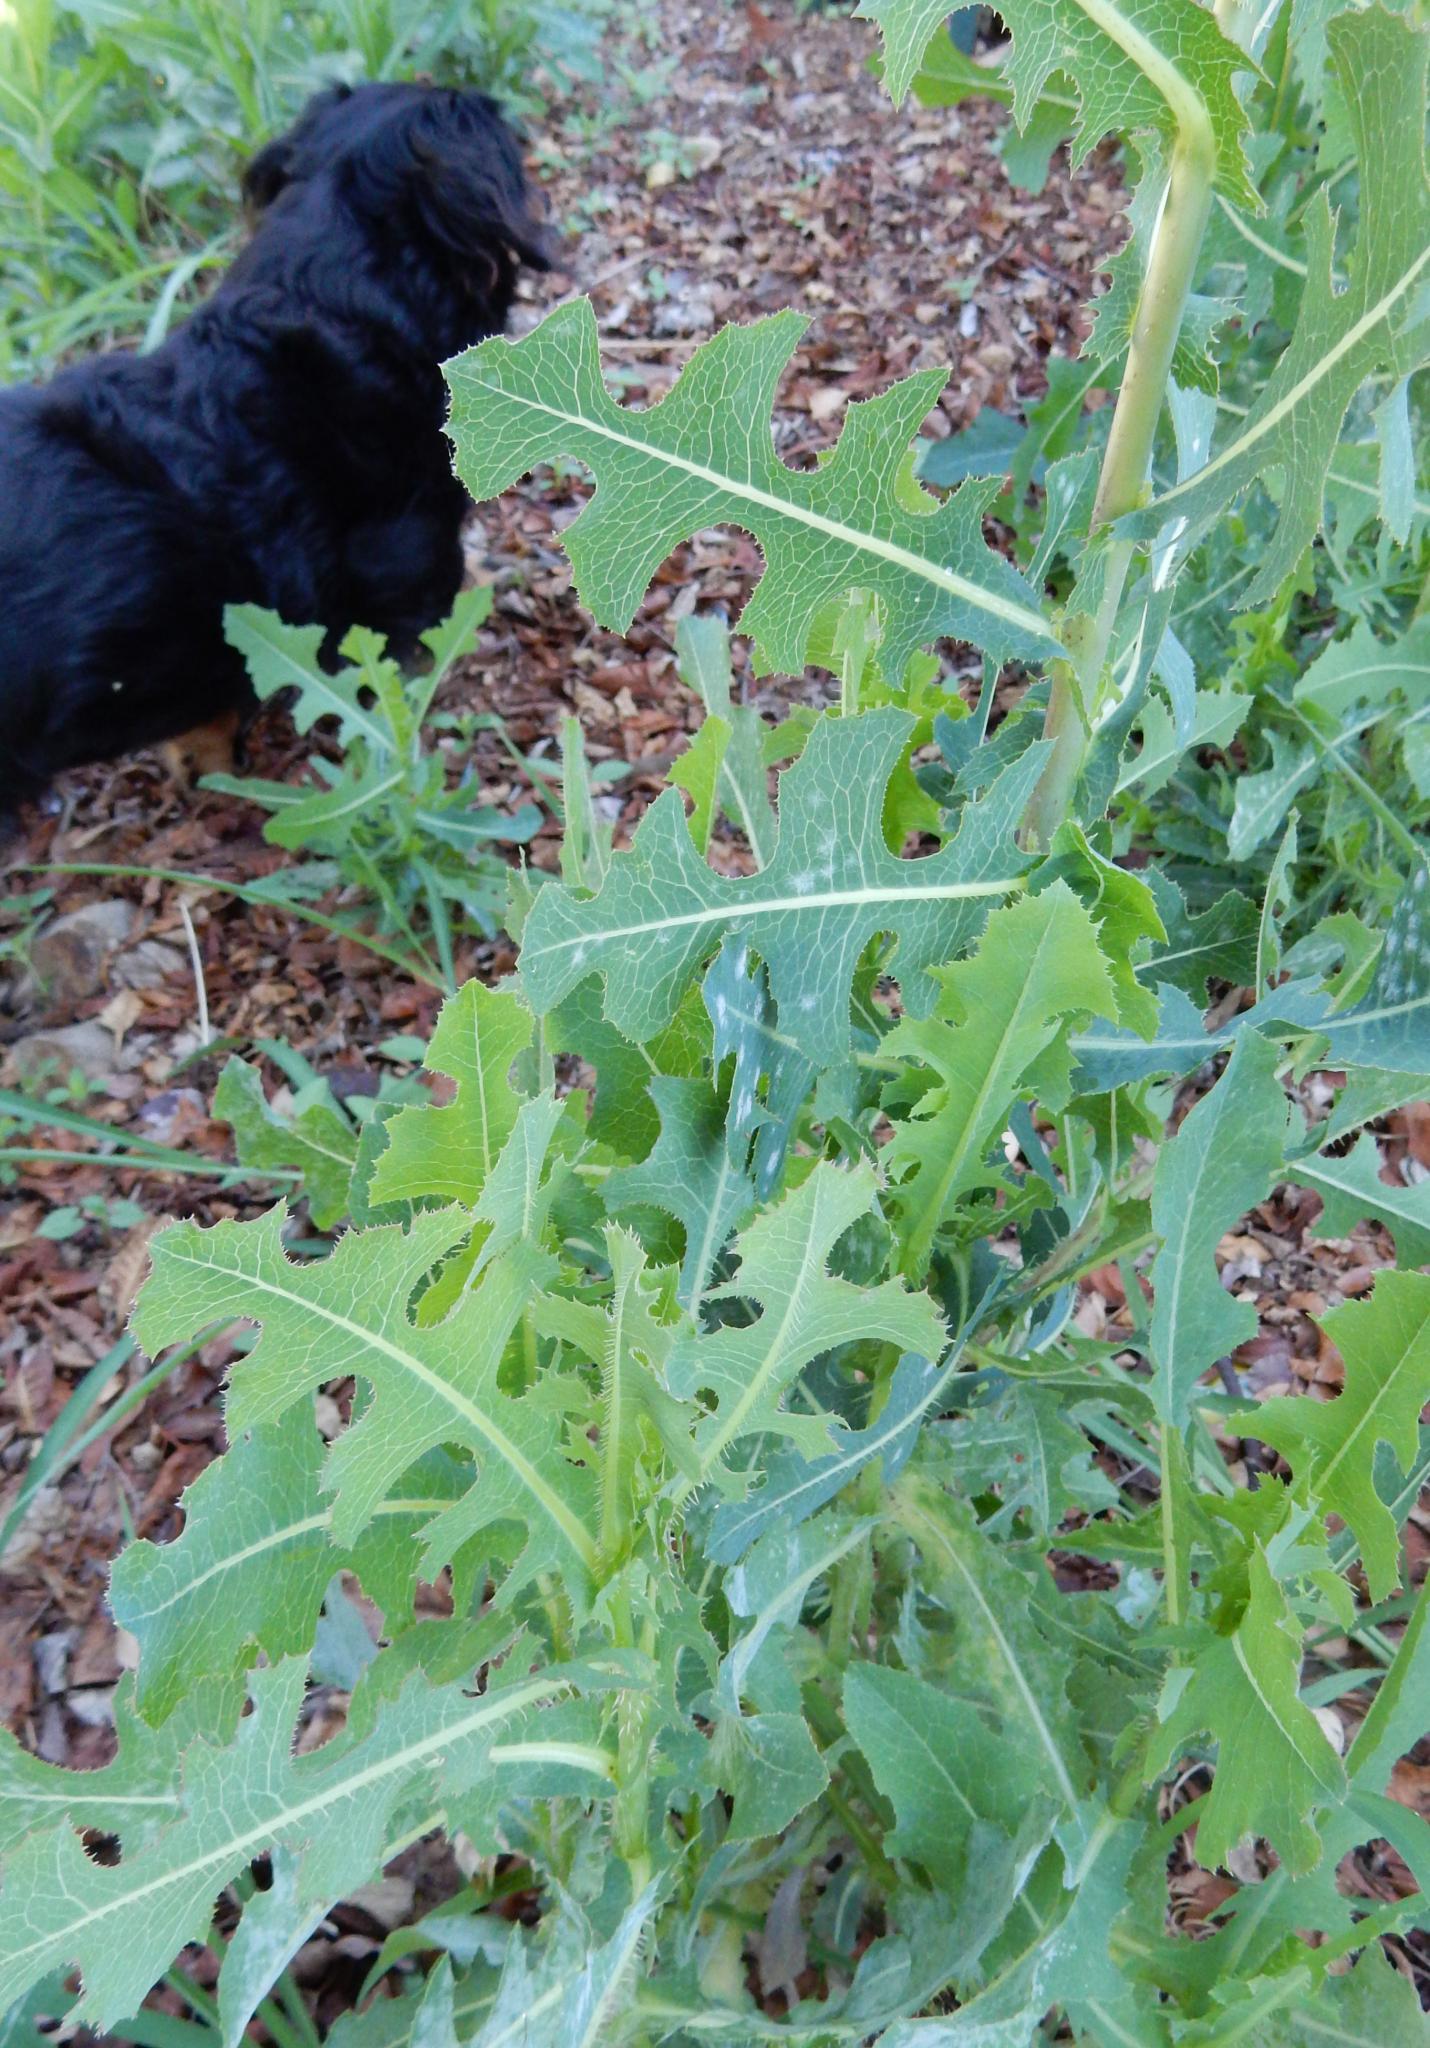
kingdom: Plantae
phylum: Tracheophyta
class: Magnoliopsida
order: Asterales
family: Asteraceae
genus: Lactuca
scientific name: Lactuca serriola
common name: Prickly lettuce
